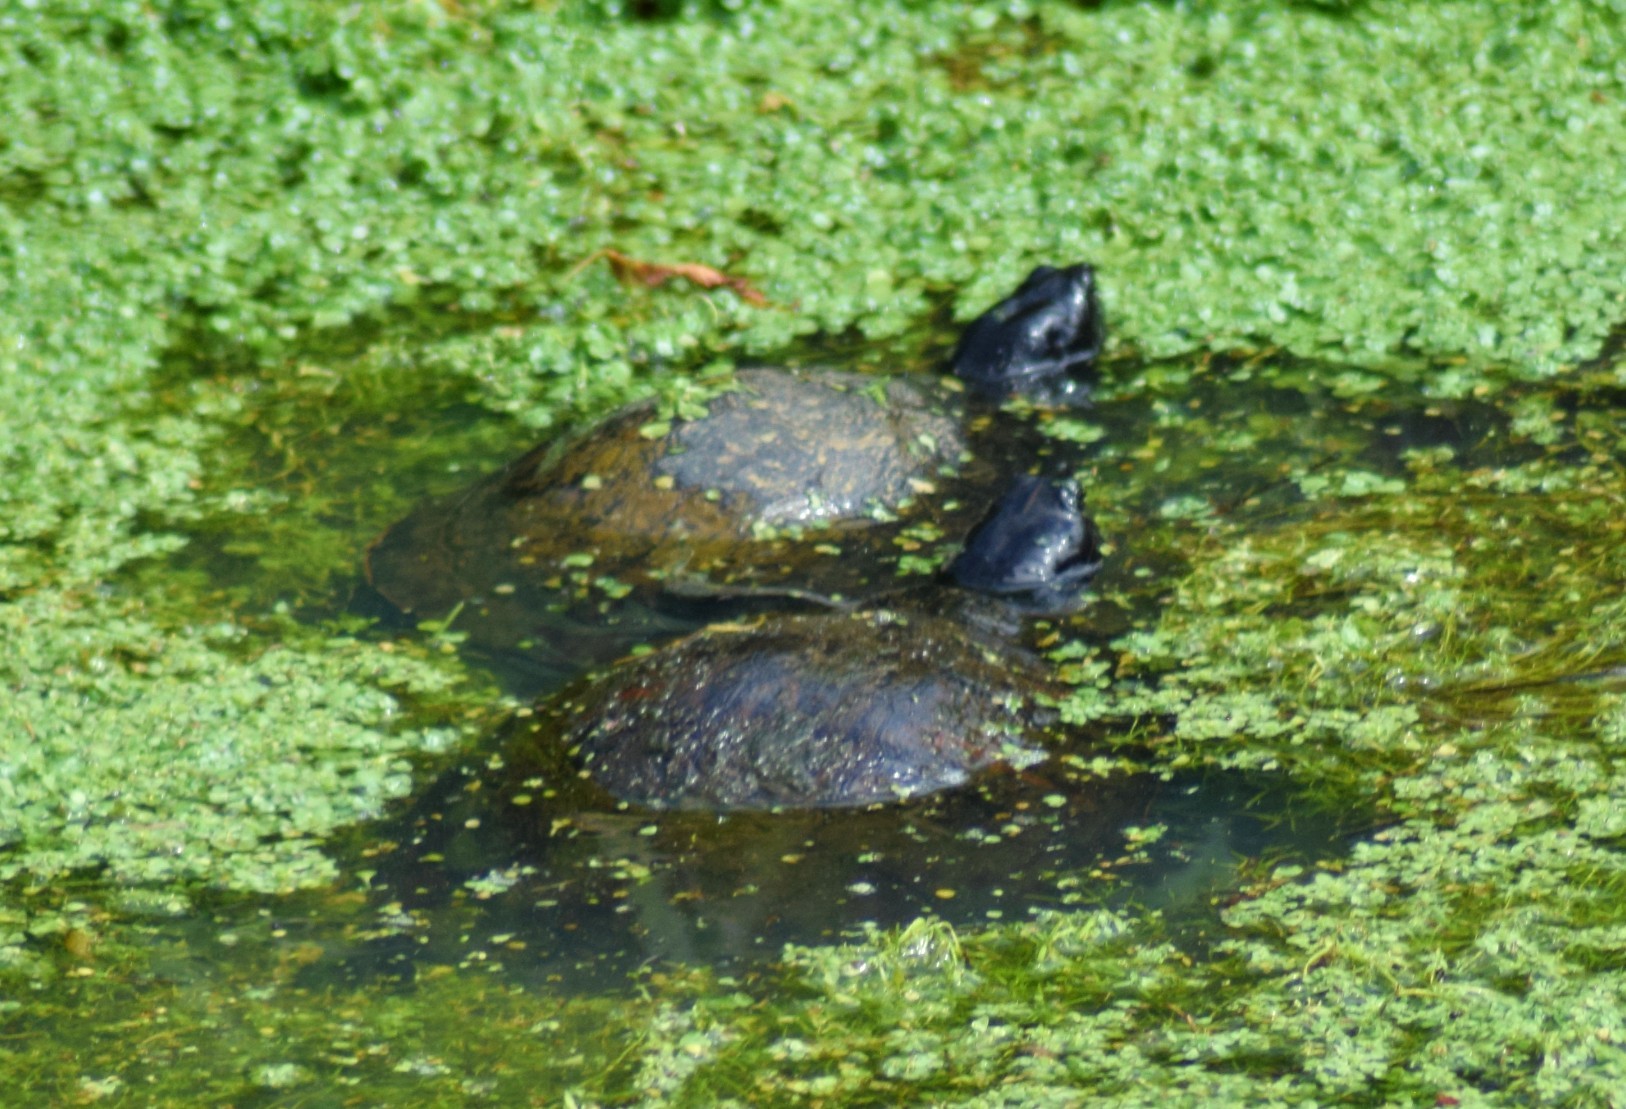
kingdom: Animalia
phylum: Chordata
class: Testudines
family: Emydidae
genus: Pseudemys
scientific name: Pseudemys rubriventris
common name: American red-bellied turtle
